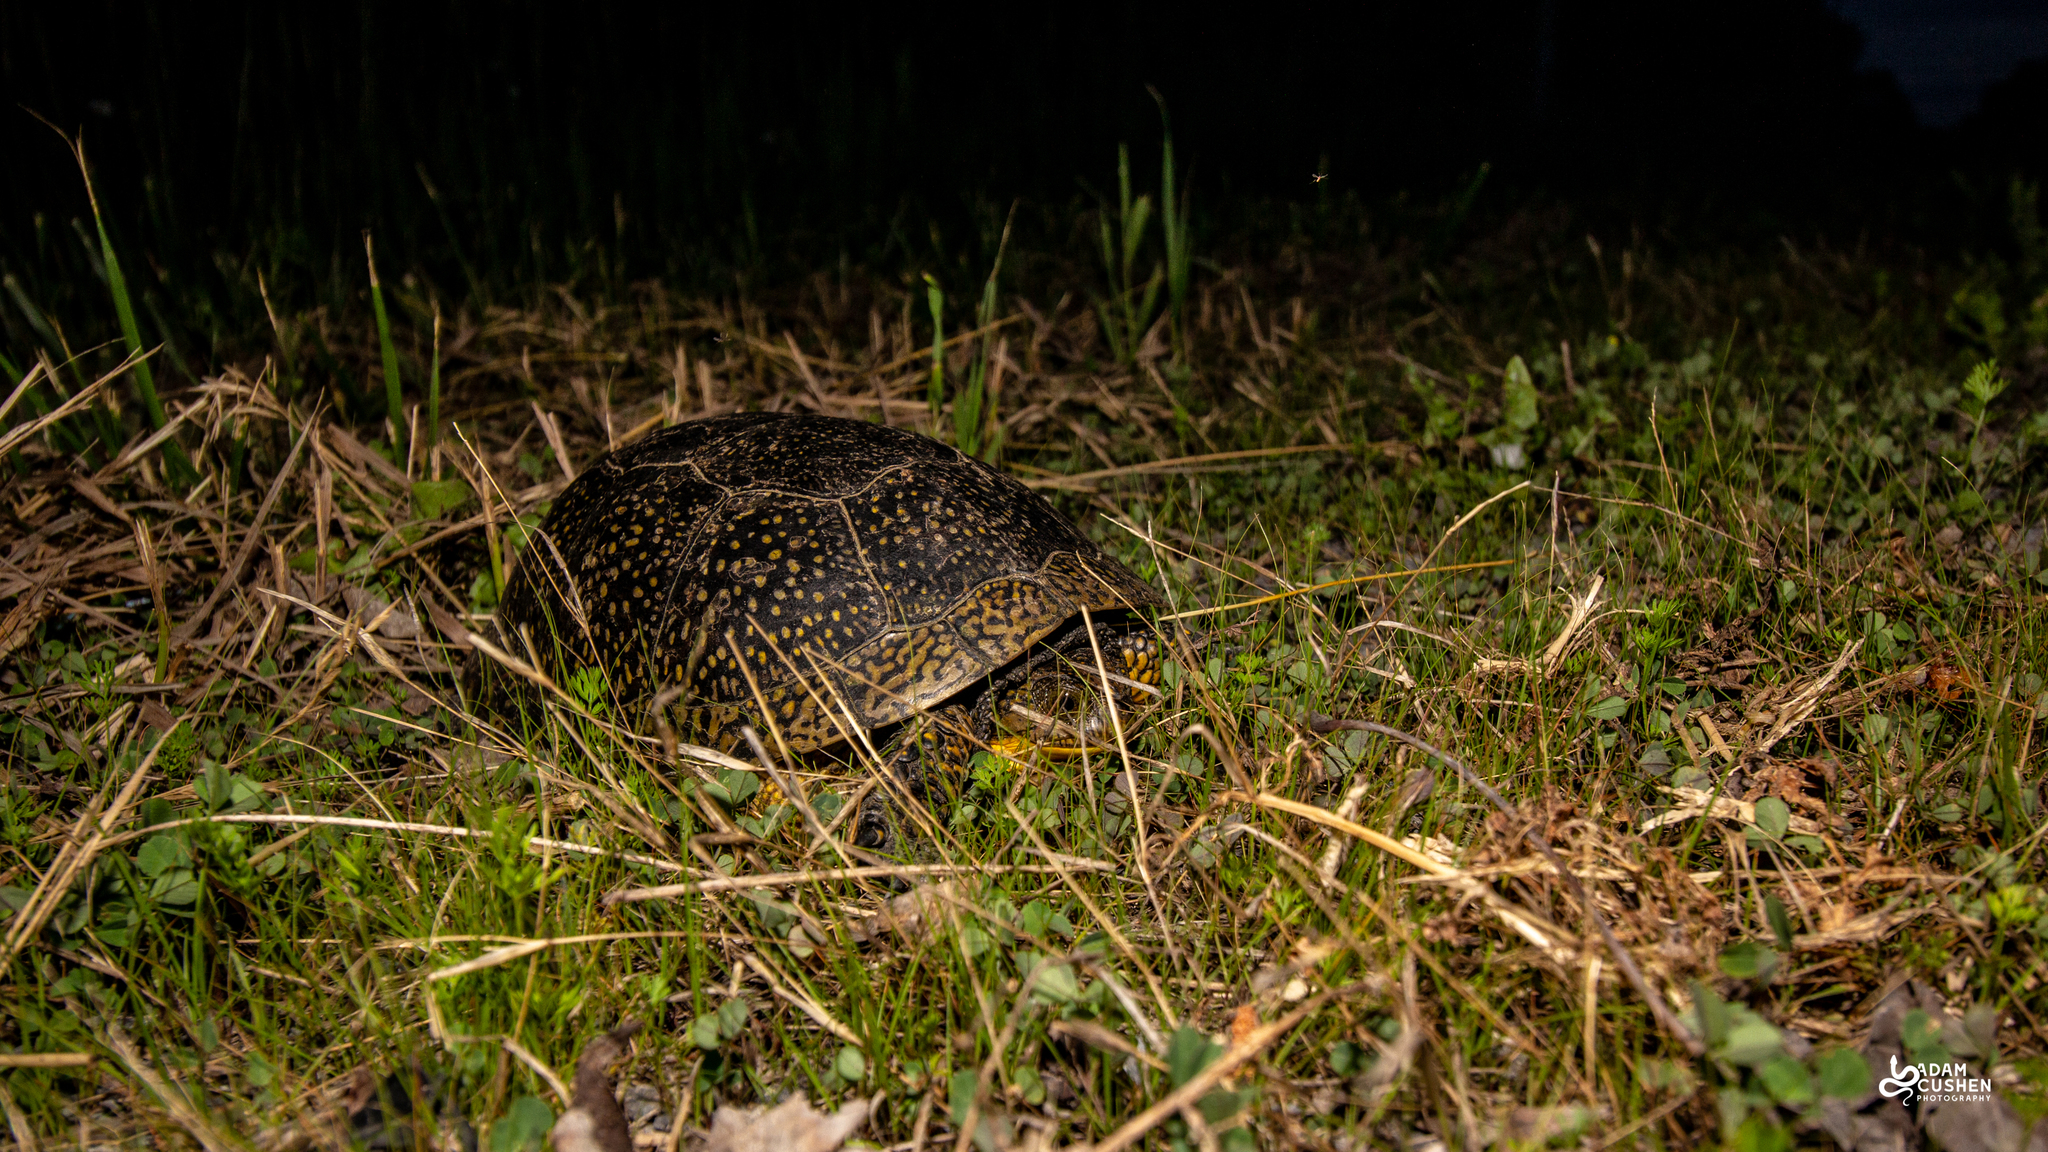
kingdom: Animalia
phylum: Chordata
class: Testudines
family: Emydidae
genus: Emys
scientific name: Emys blandingii
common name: Blanding's turtle
